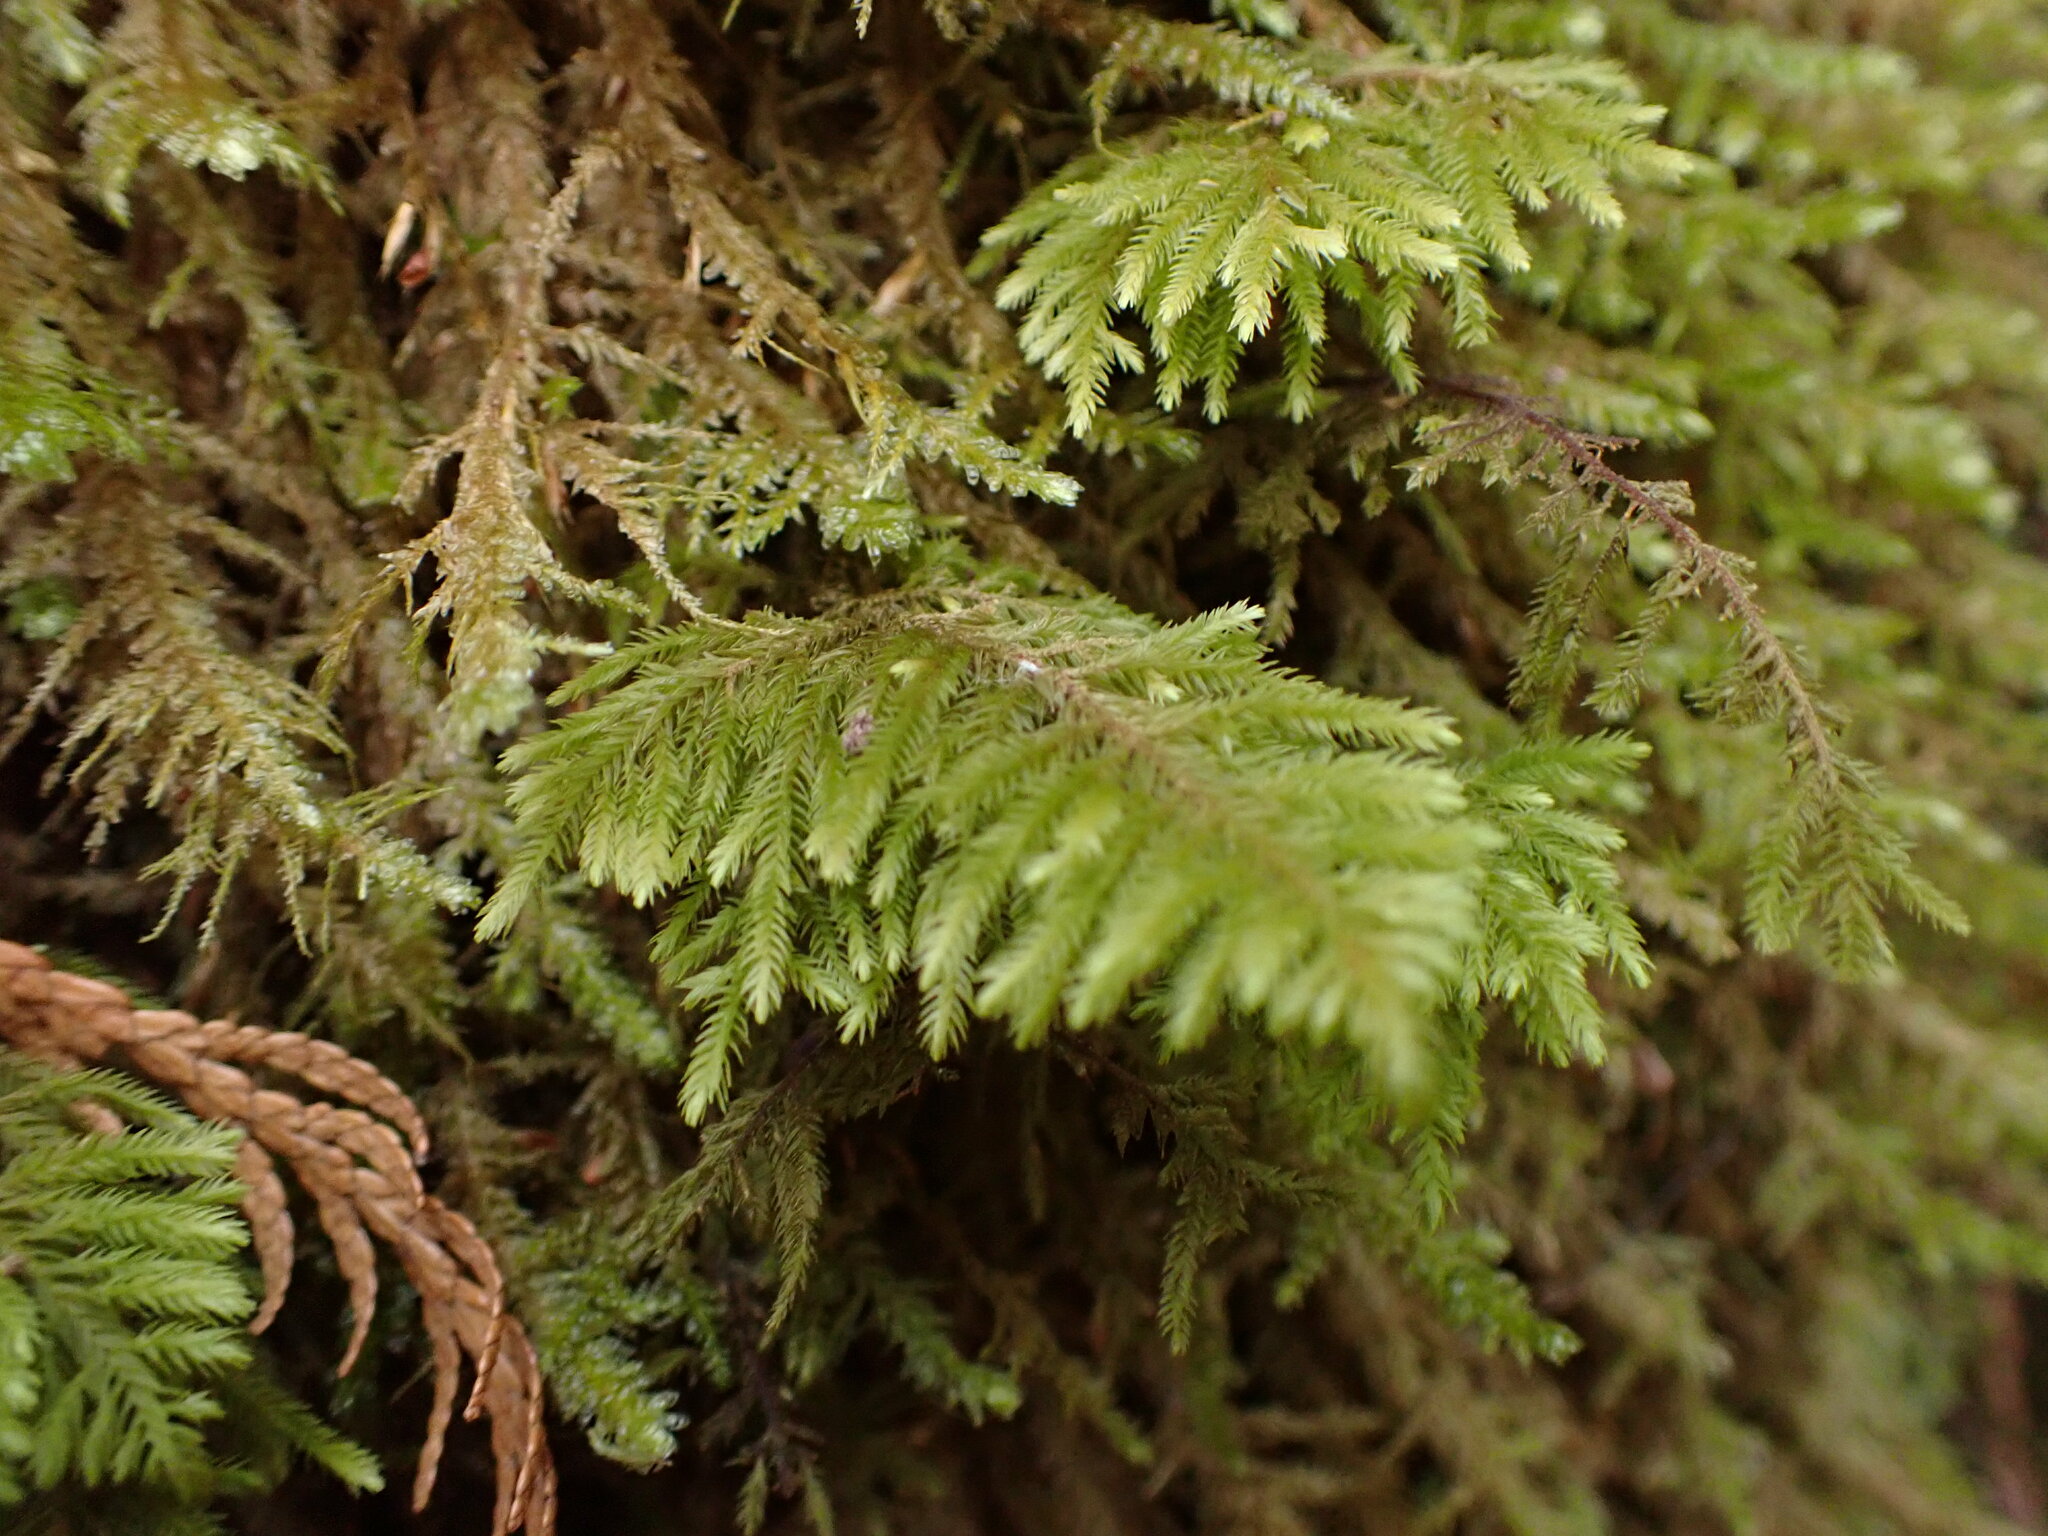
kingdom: Plantae
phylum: Bryophyta
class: Bryopsida
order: Hypnales
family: Cryphaeaceae
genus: Dendroalsia
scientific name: Dendroalsia abietina
